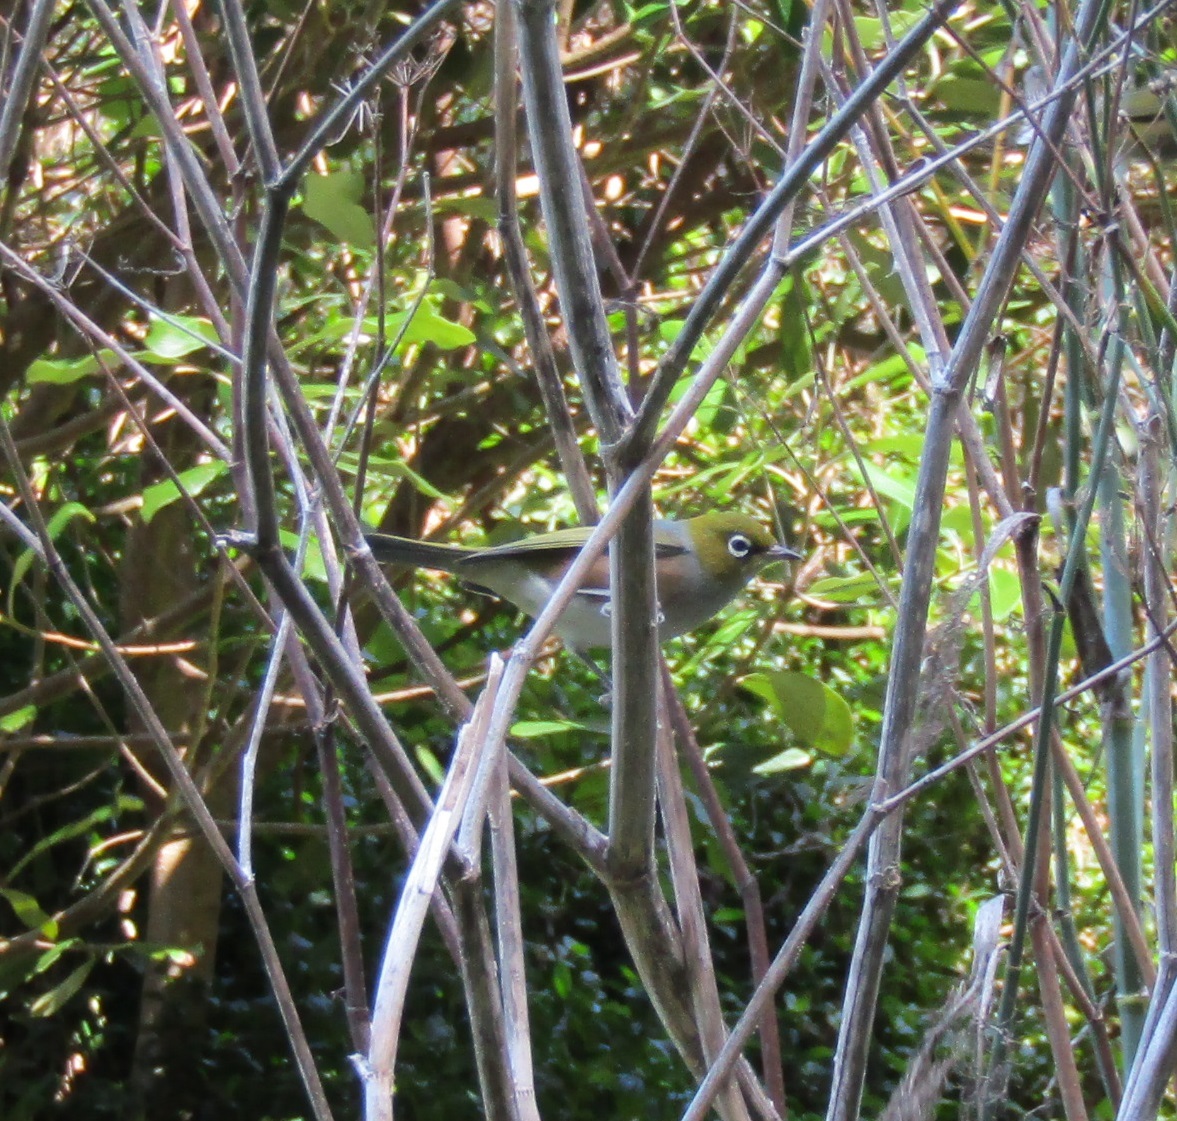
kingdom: Animalia
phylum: Chordata
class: Aves
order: Passeriformes
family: Zosteropidae
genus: Zosterops
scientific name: Zosterops lateralis
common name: Silvereye
